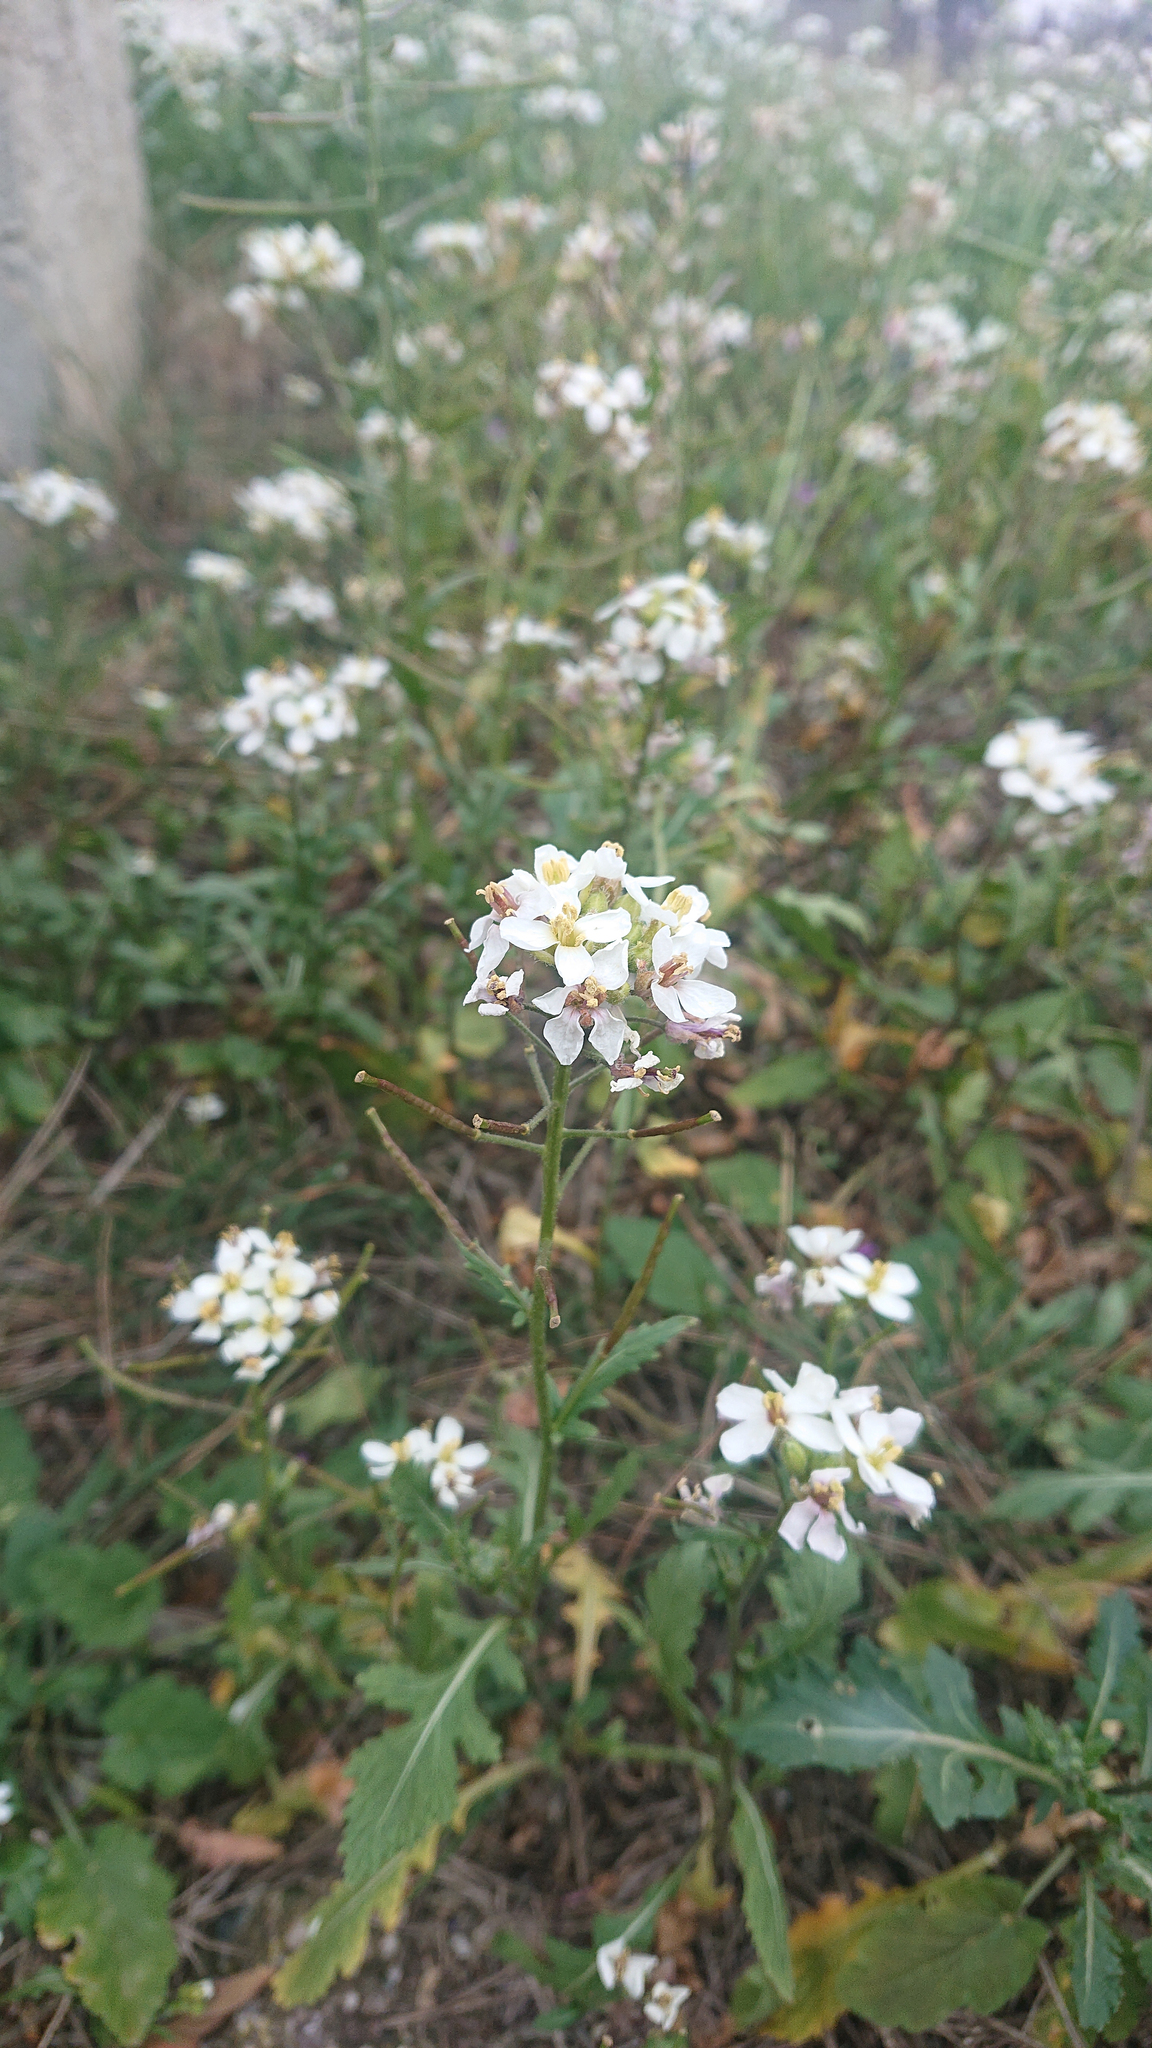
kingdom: Plantae
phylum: Tracheophyta
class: Magnoliopsida
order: Brassicales
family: Brassicaceae
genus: Diplotaxis
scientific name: Diplotaxis erucoides
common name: White rocket
